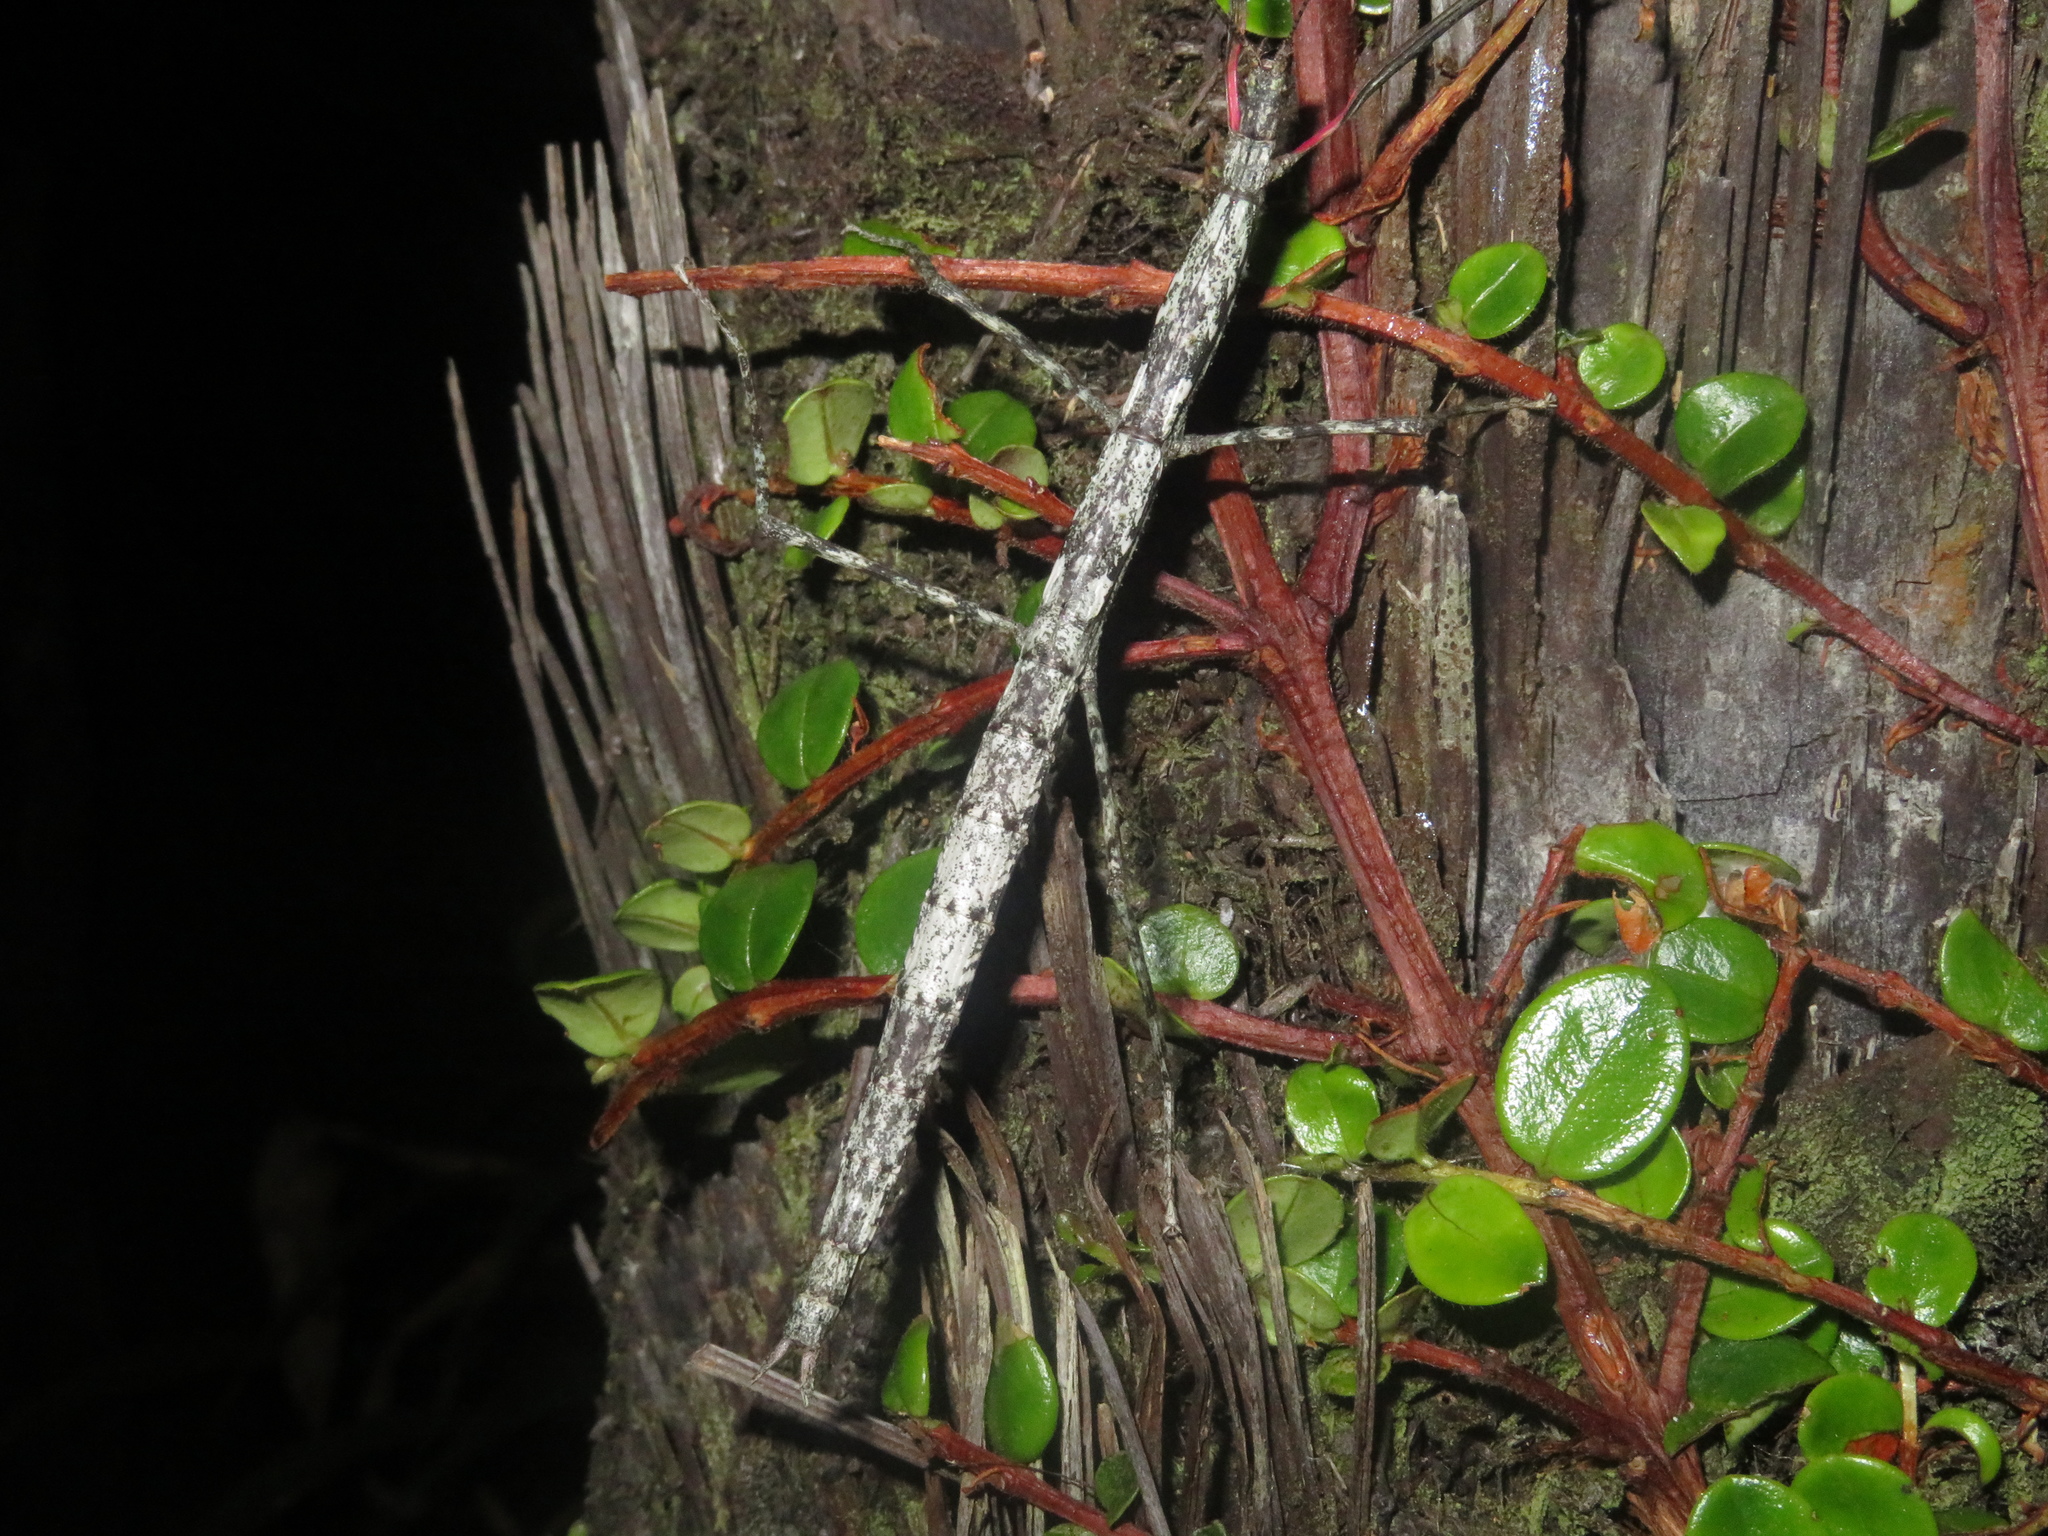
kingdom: Animalia
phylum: Arthropoda
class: Insecta
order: Phasmida
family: Phasmatidae
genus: Clitarchus
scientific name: Clitarchus hookeri
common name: Smooth stick insect
